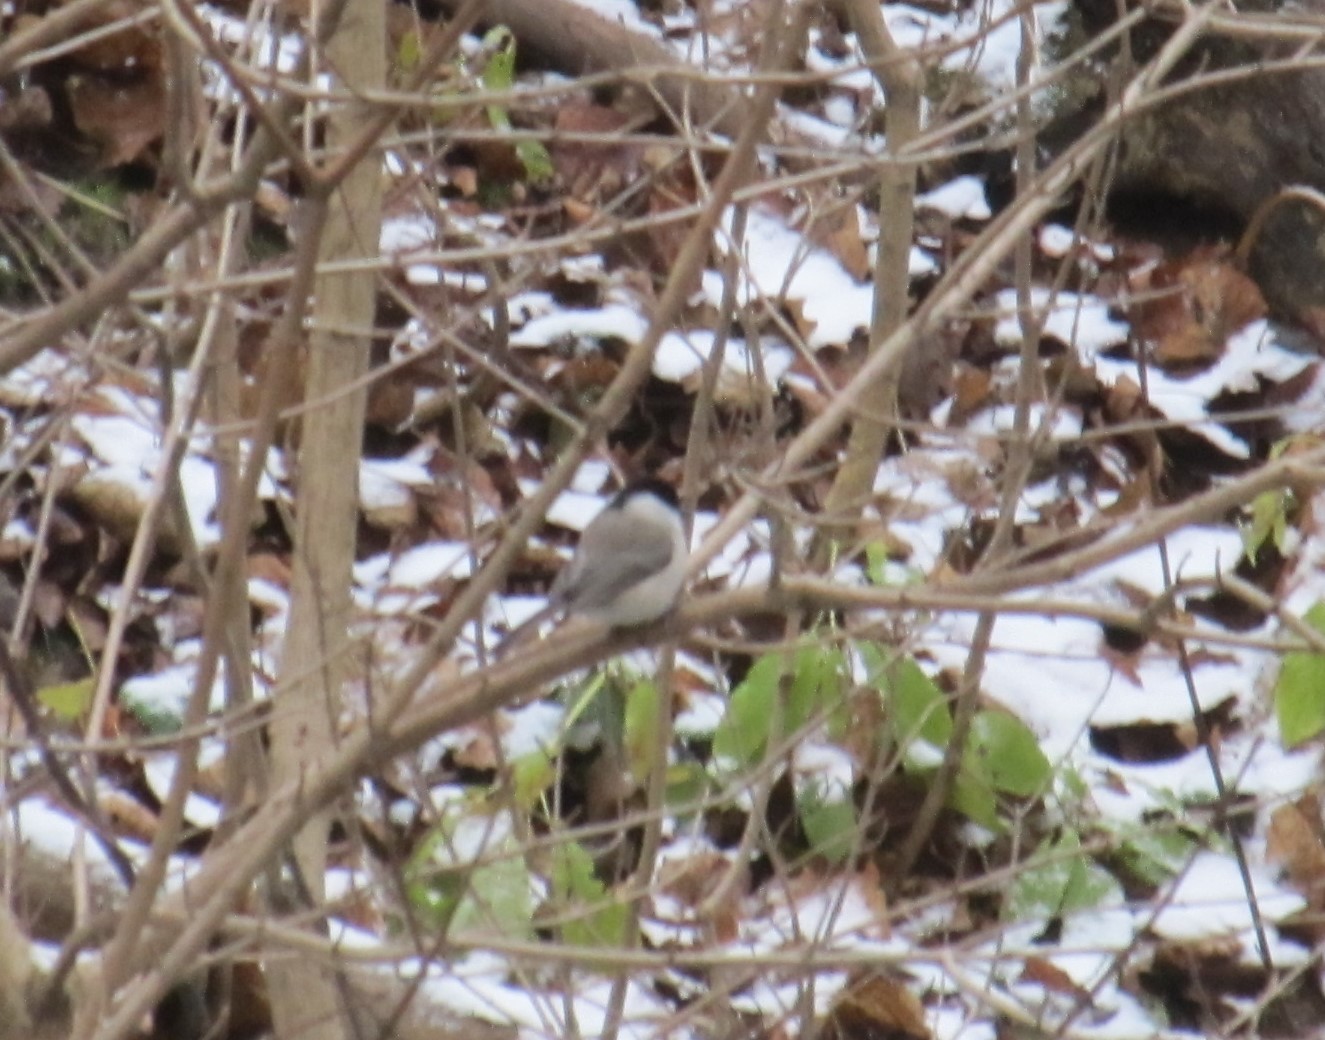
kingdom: Animalia
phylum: Chordata
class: Aves
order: Passeriformes
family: Paridae
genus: Poecile
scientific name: Poecile palustris
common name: Marsh tit
